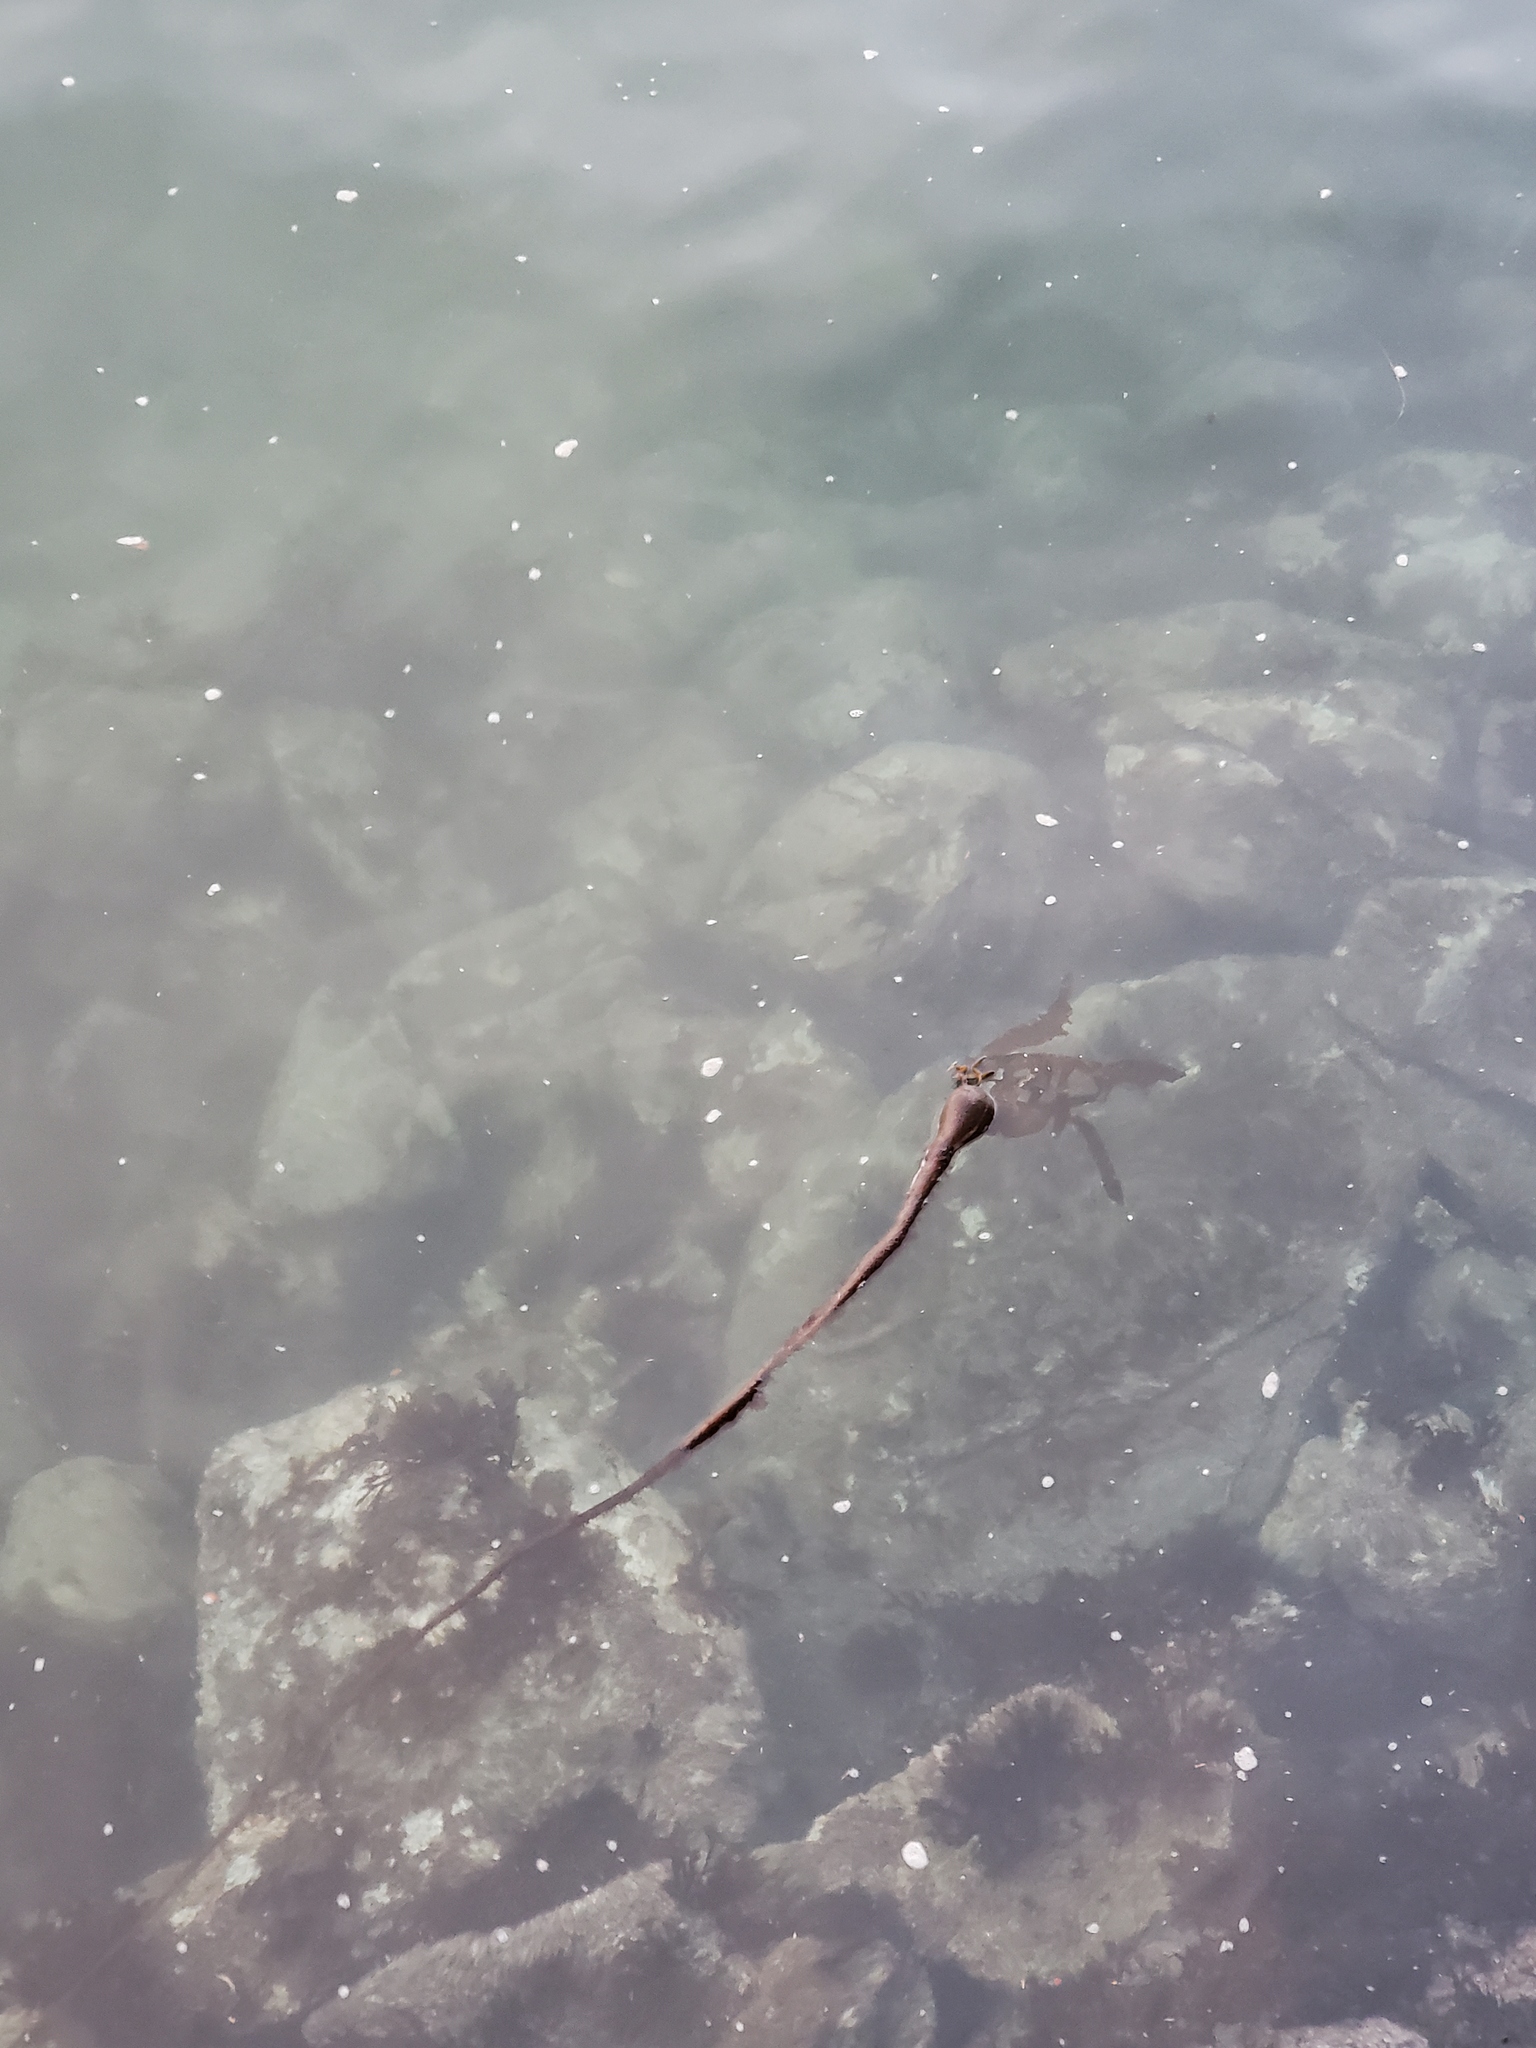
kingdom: Chromista
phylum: Ochrophyta
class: Phaeophyceae
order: Laminariales
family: Laminariaceae
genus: Nereocystis
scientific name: Nereocystis luetkeana
